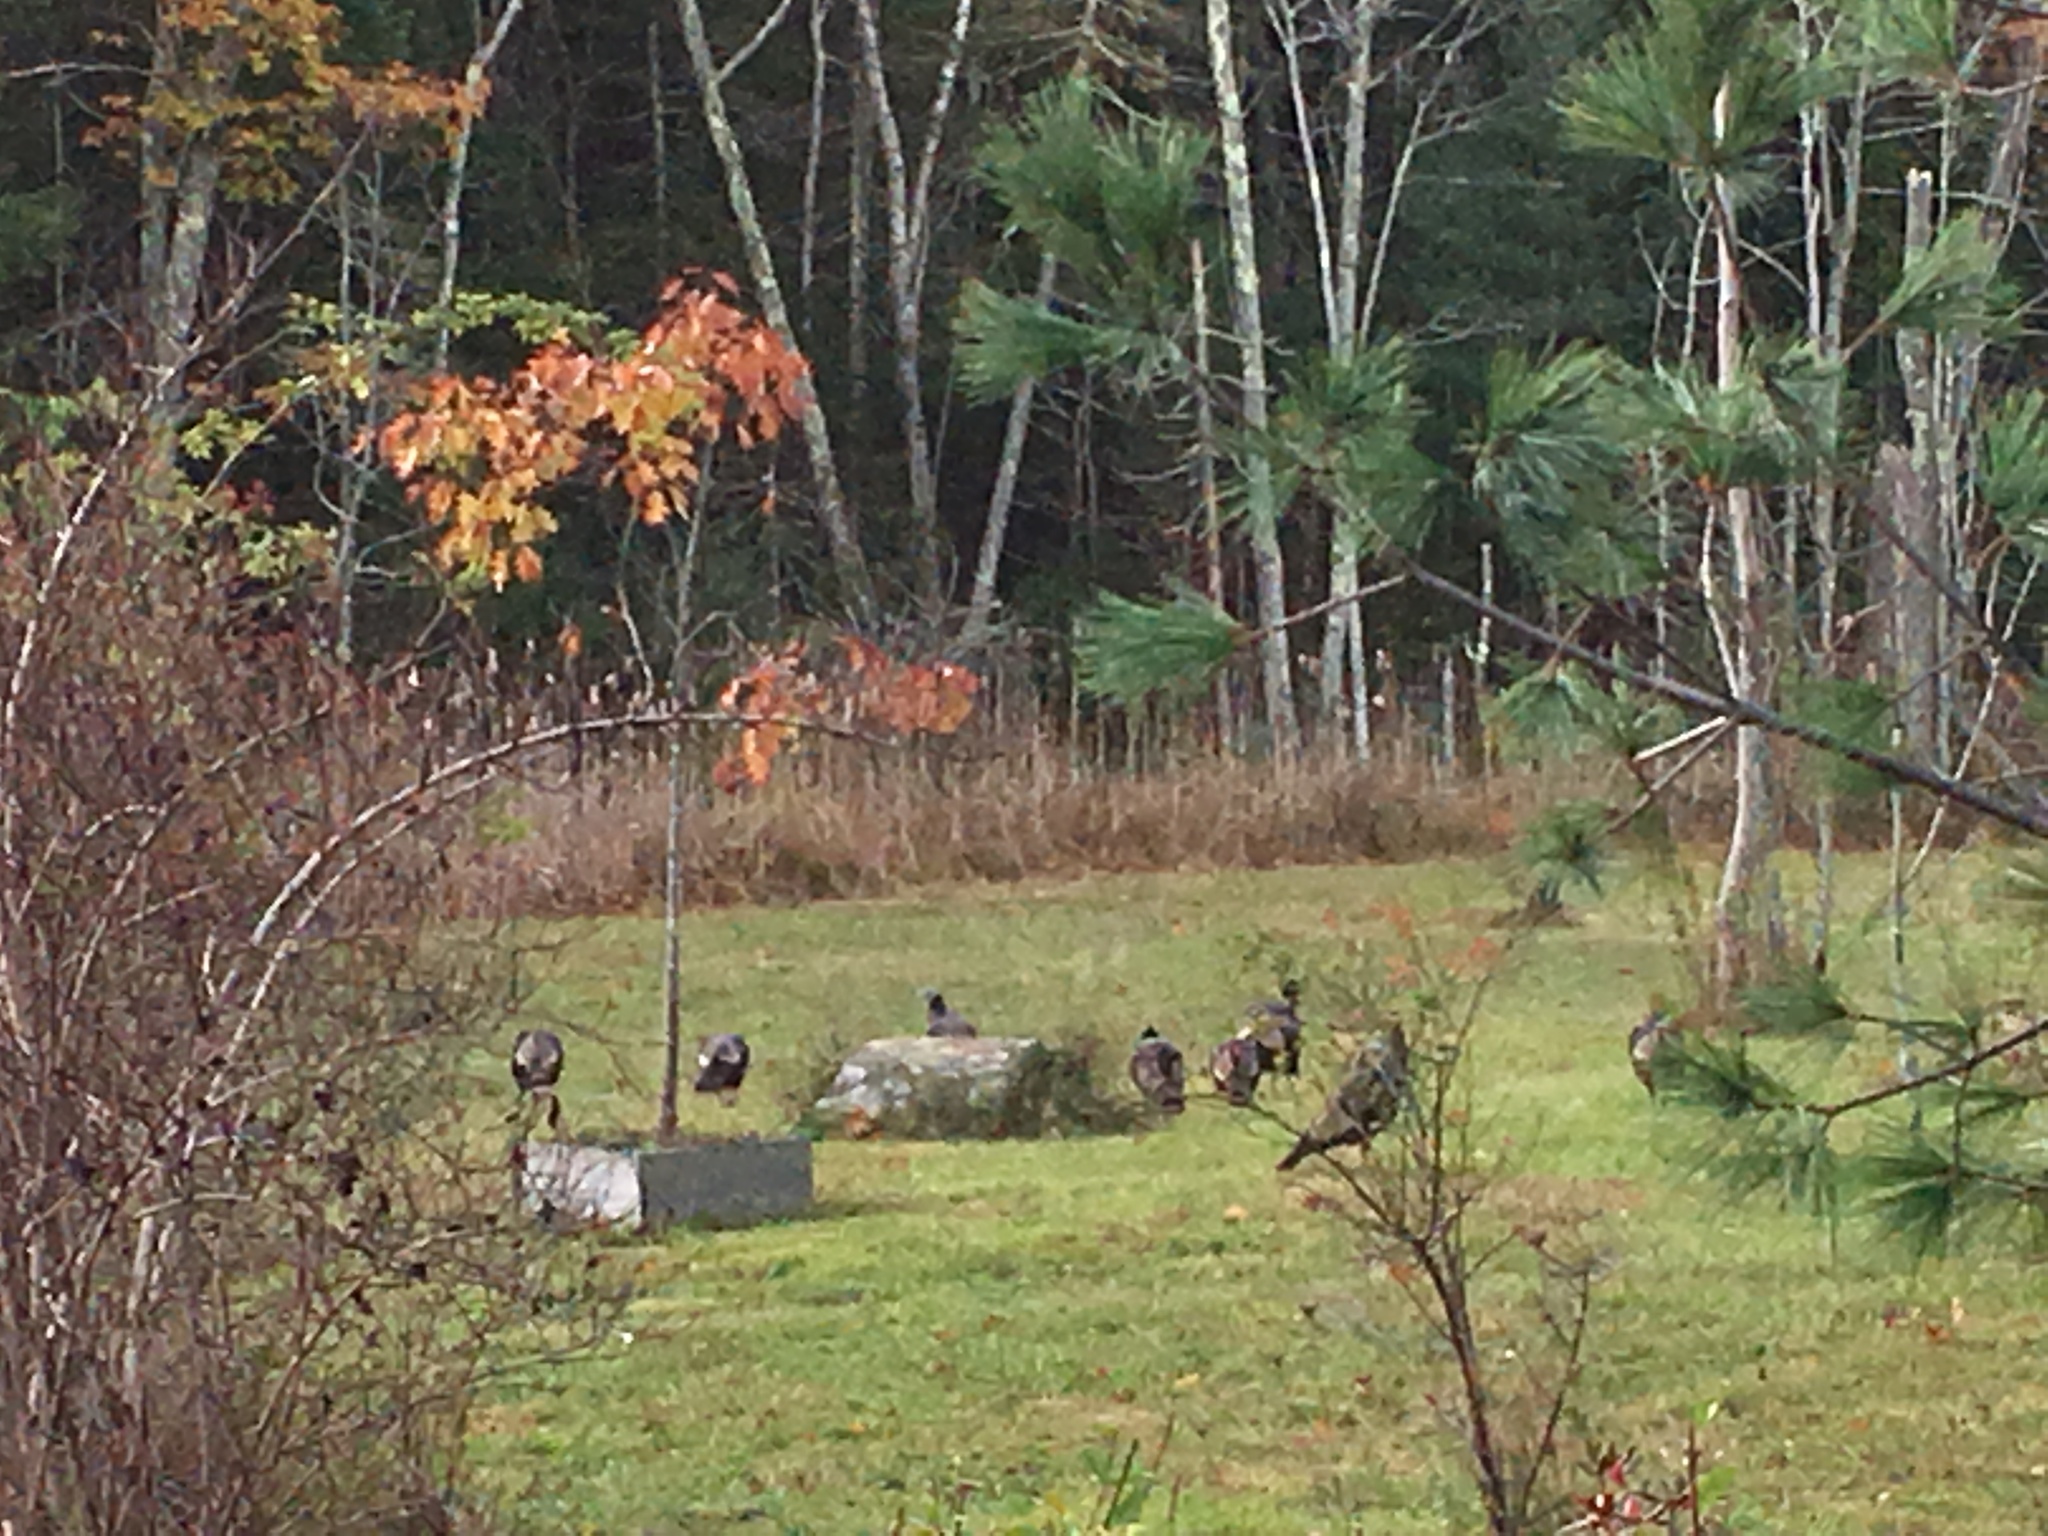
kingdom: Animalia
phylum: Chordata
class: Aves
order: Galliformes
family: Phasianidae
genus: Meleagris
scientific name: Meleagris gallopavo
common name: Wild turkey
